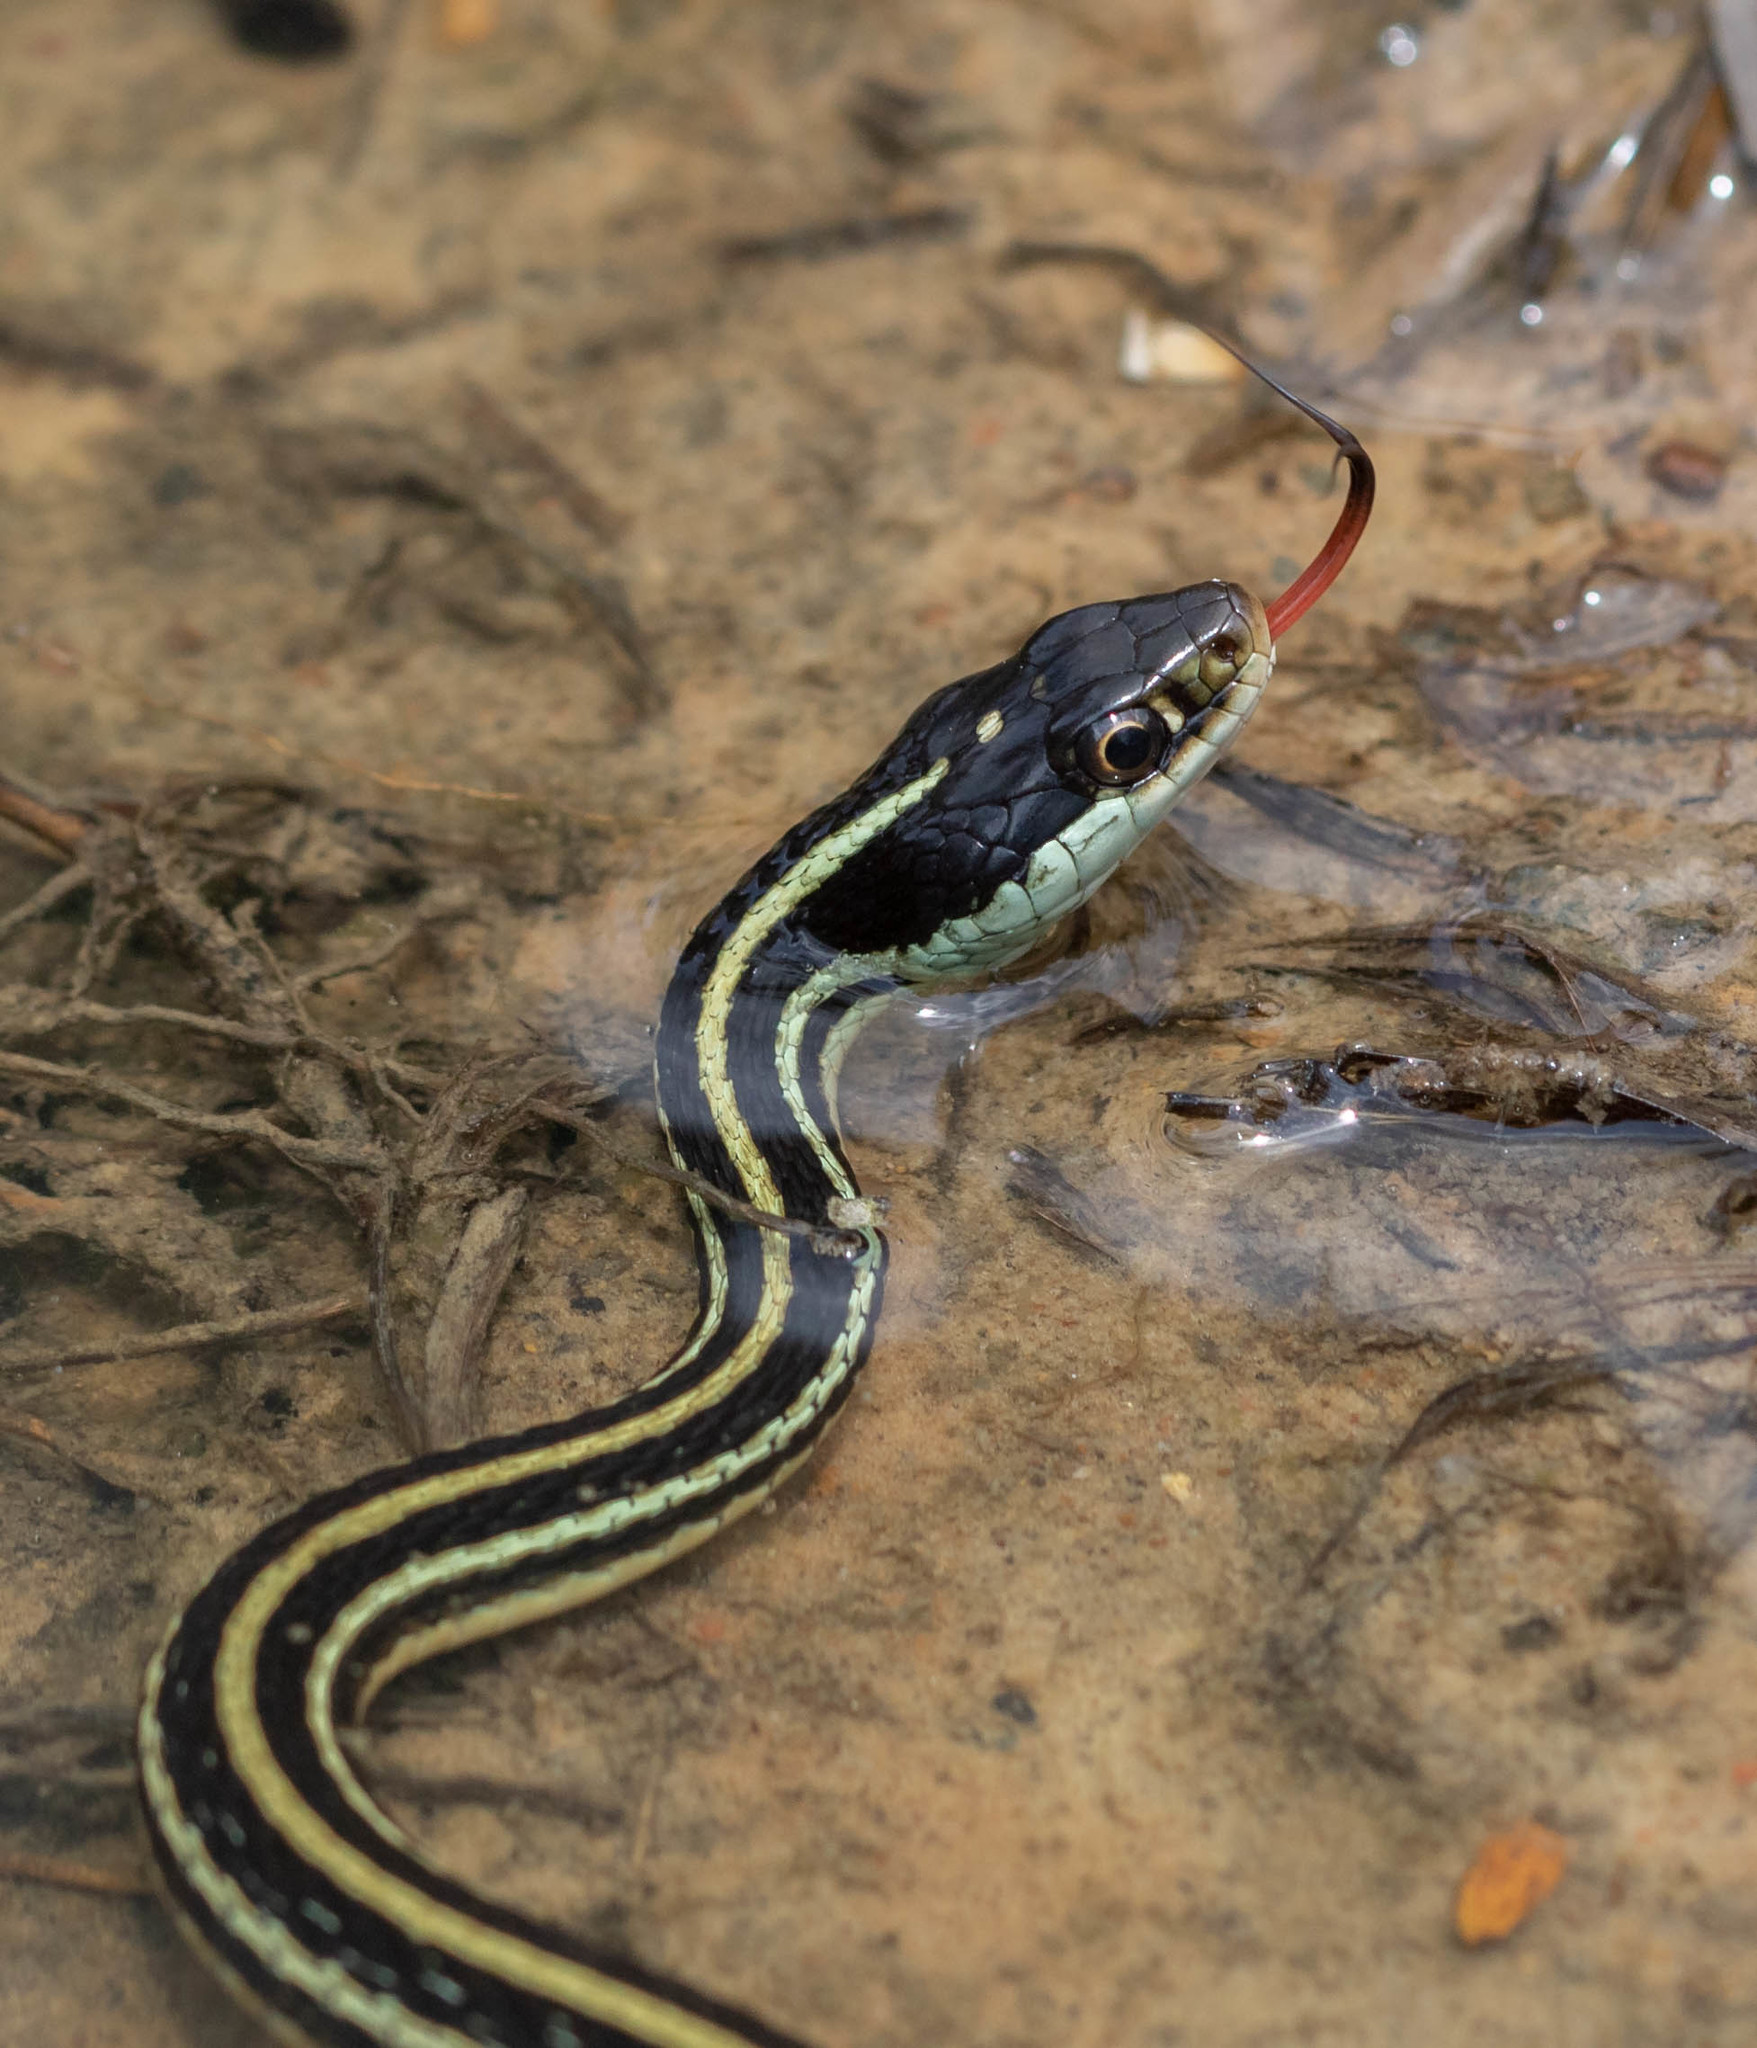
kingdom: Animalia
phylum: Chordata
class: Squamata
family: Colubridae
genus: Thamnophis
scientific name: Thamnophis proximus
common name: Western ribbon snake
